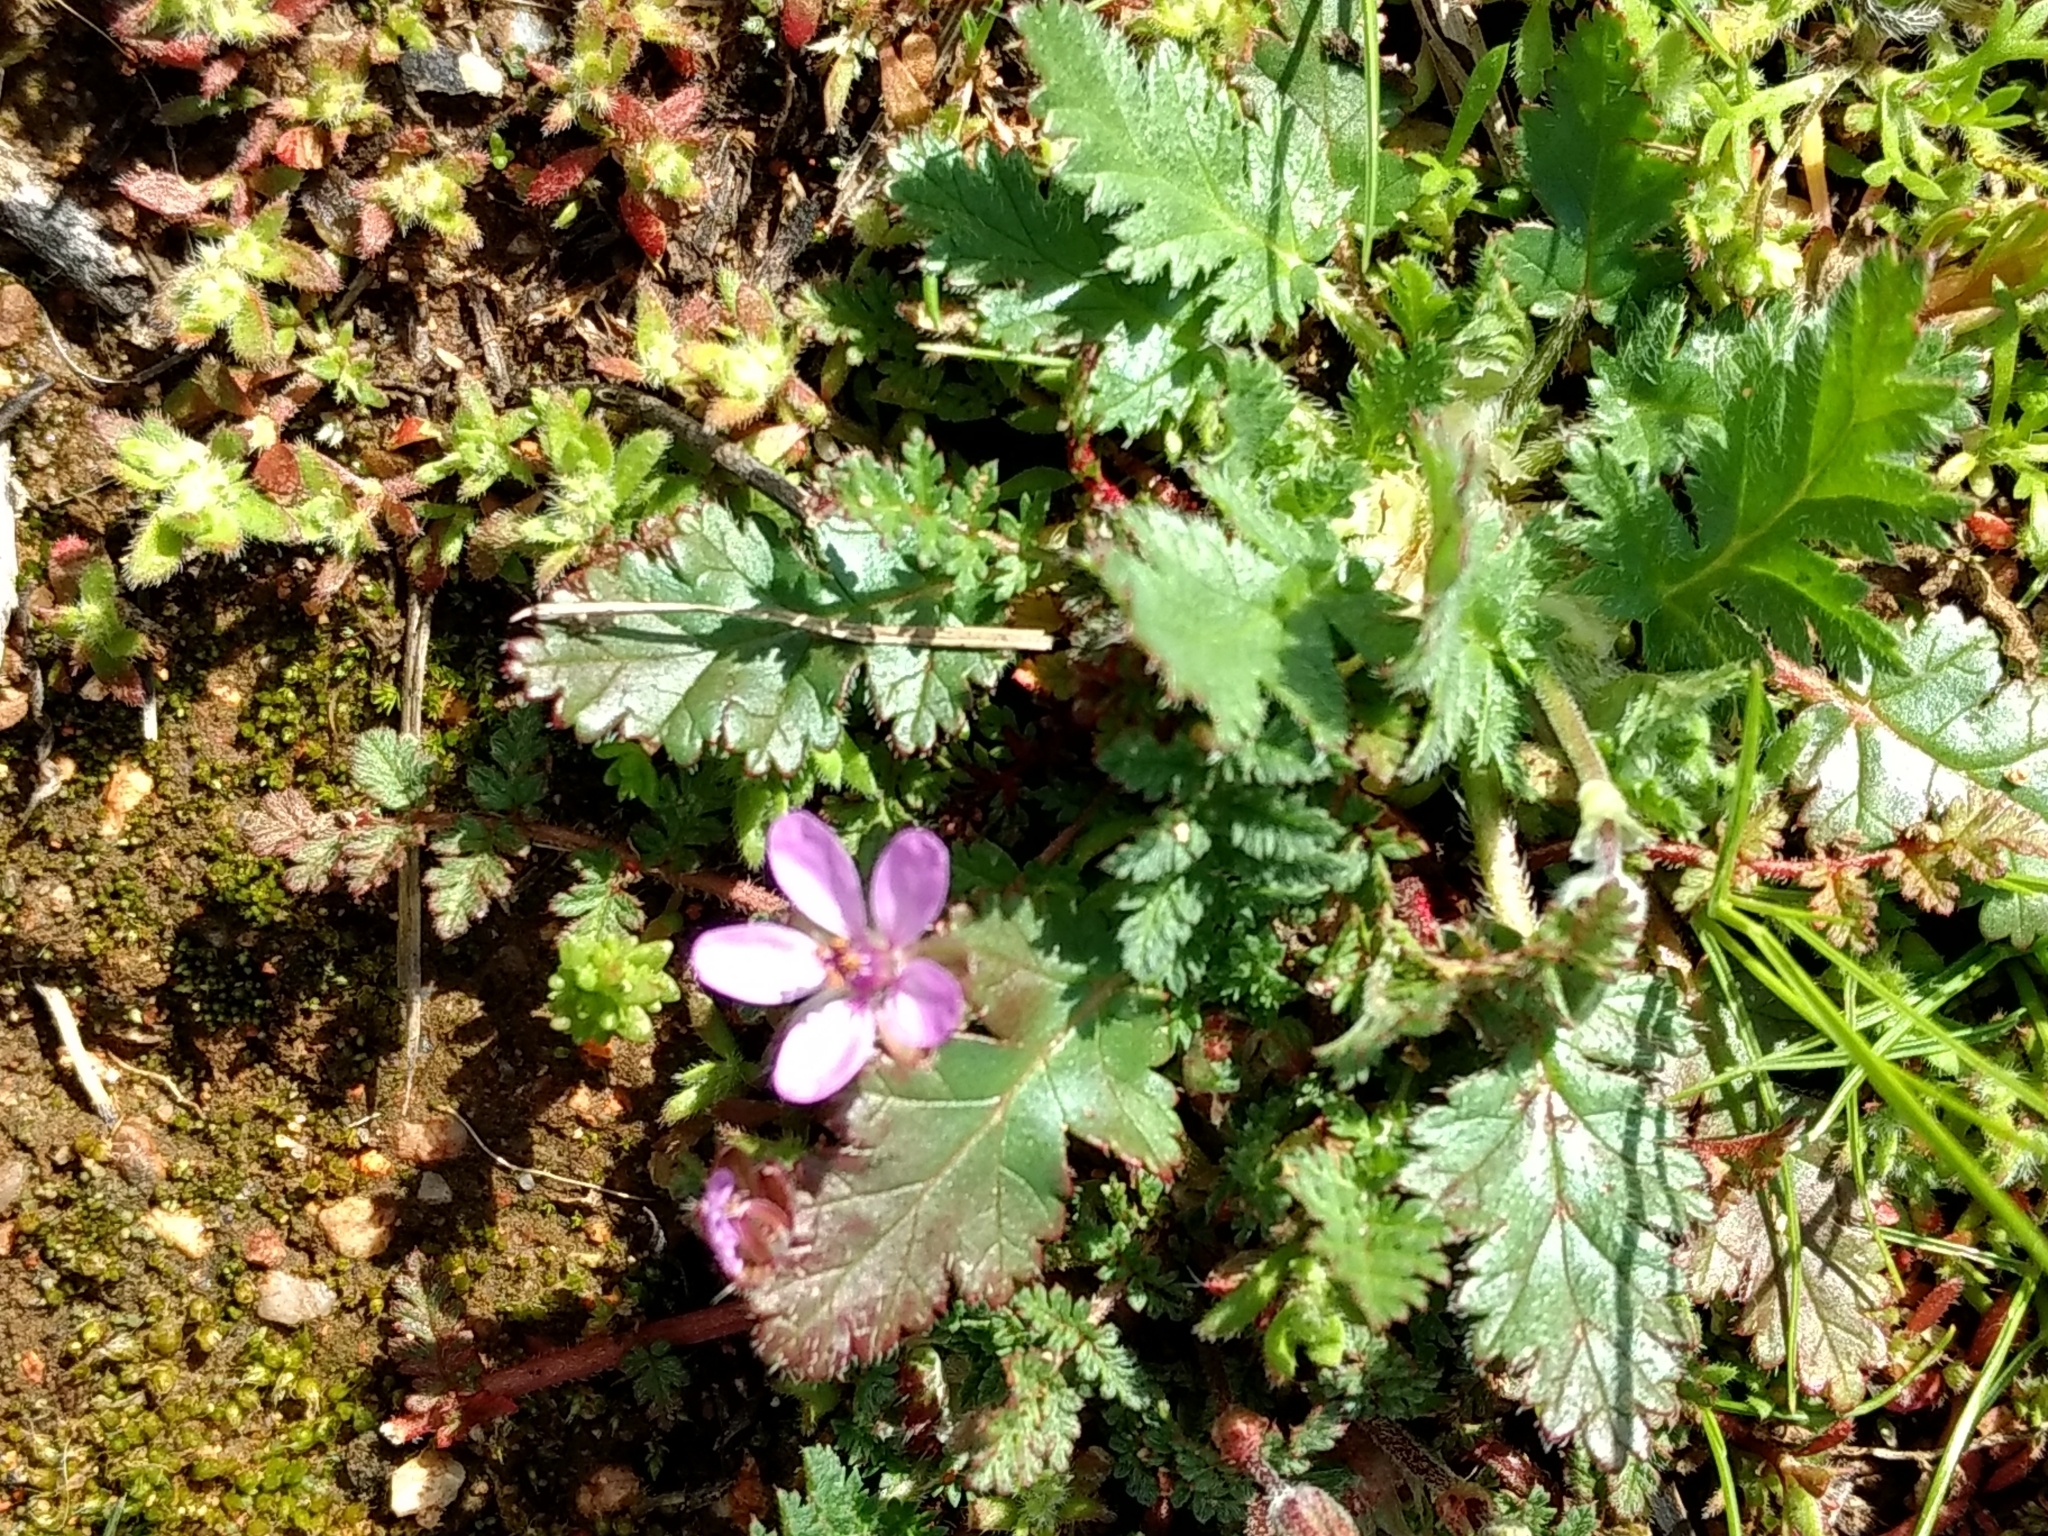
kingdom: Plantae
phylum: Tracheophyta
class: Magnoliopsida
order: Geraniales
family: Geraniaceae
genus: Erodium
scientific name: Erodium cicutarium
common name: Common stork's-bill
